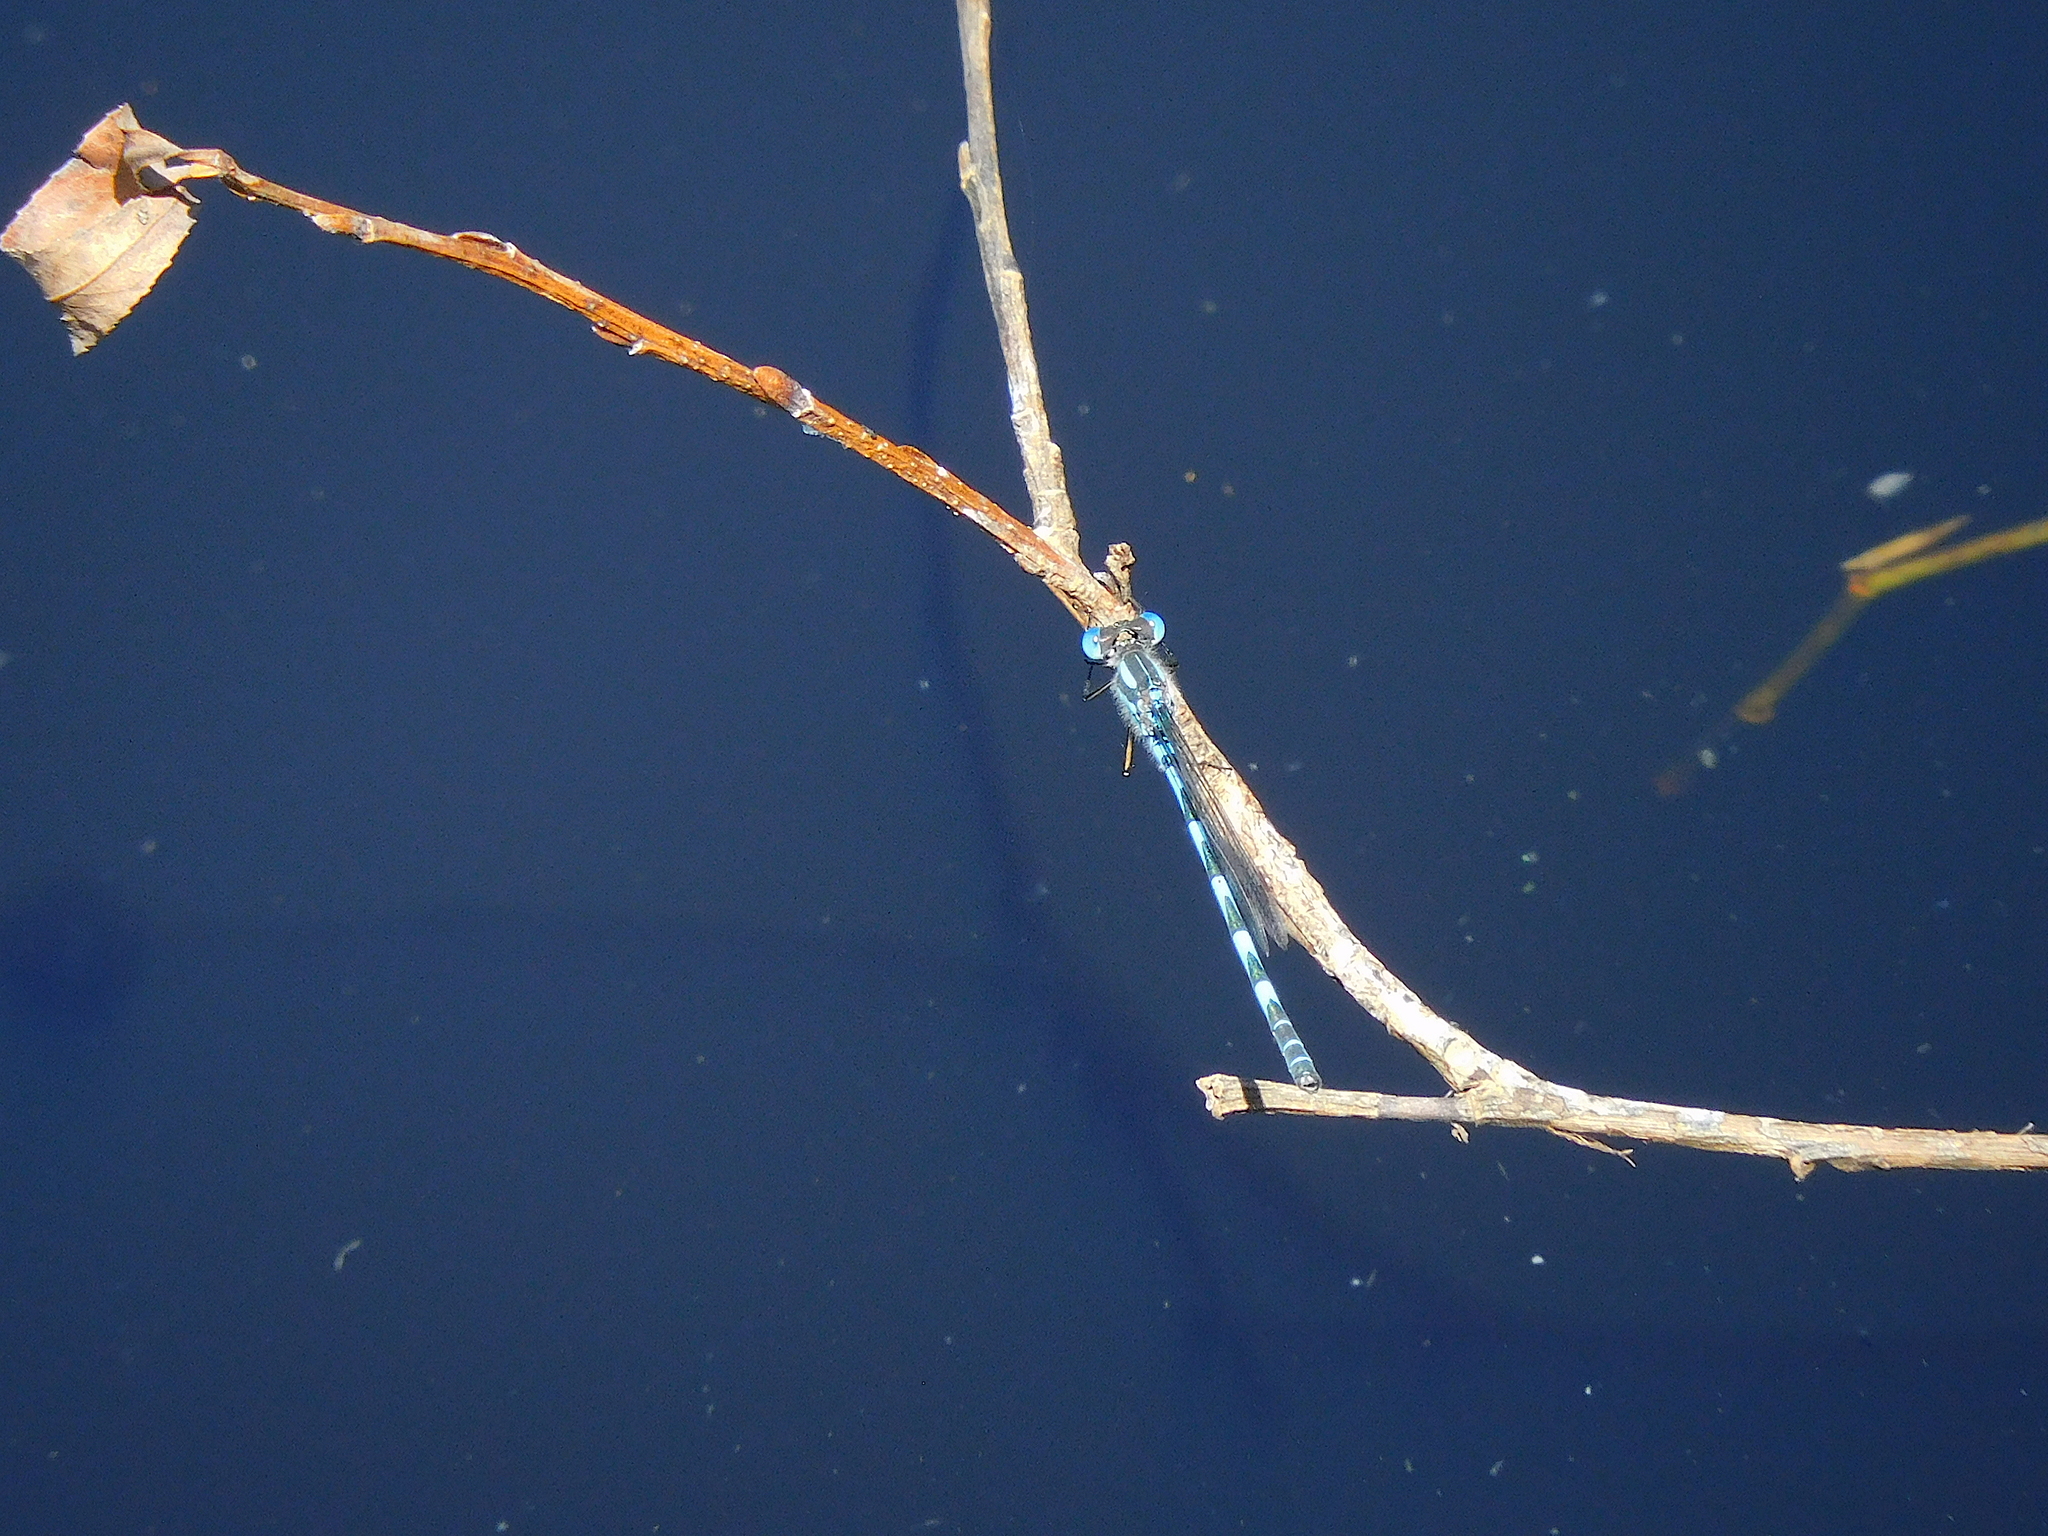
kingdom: Animalia
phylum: Arthropoda
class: Insecta
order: Odonata
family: Lestidae
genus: Austrolestes
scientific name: Austrolestes annulosus
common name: Blue ringtail
